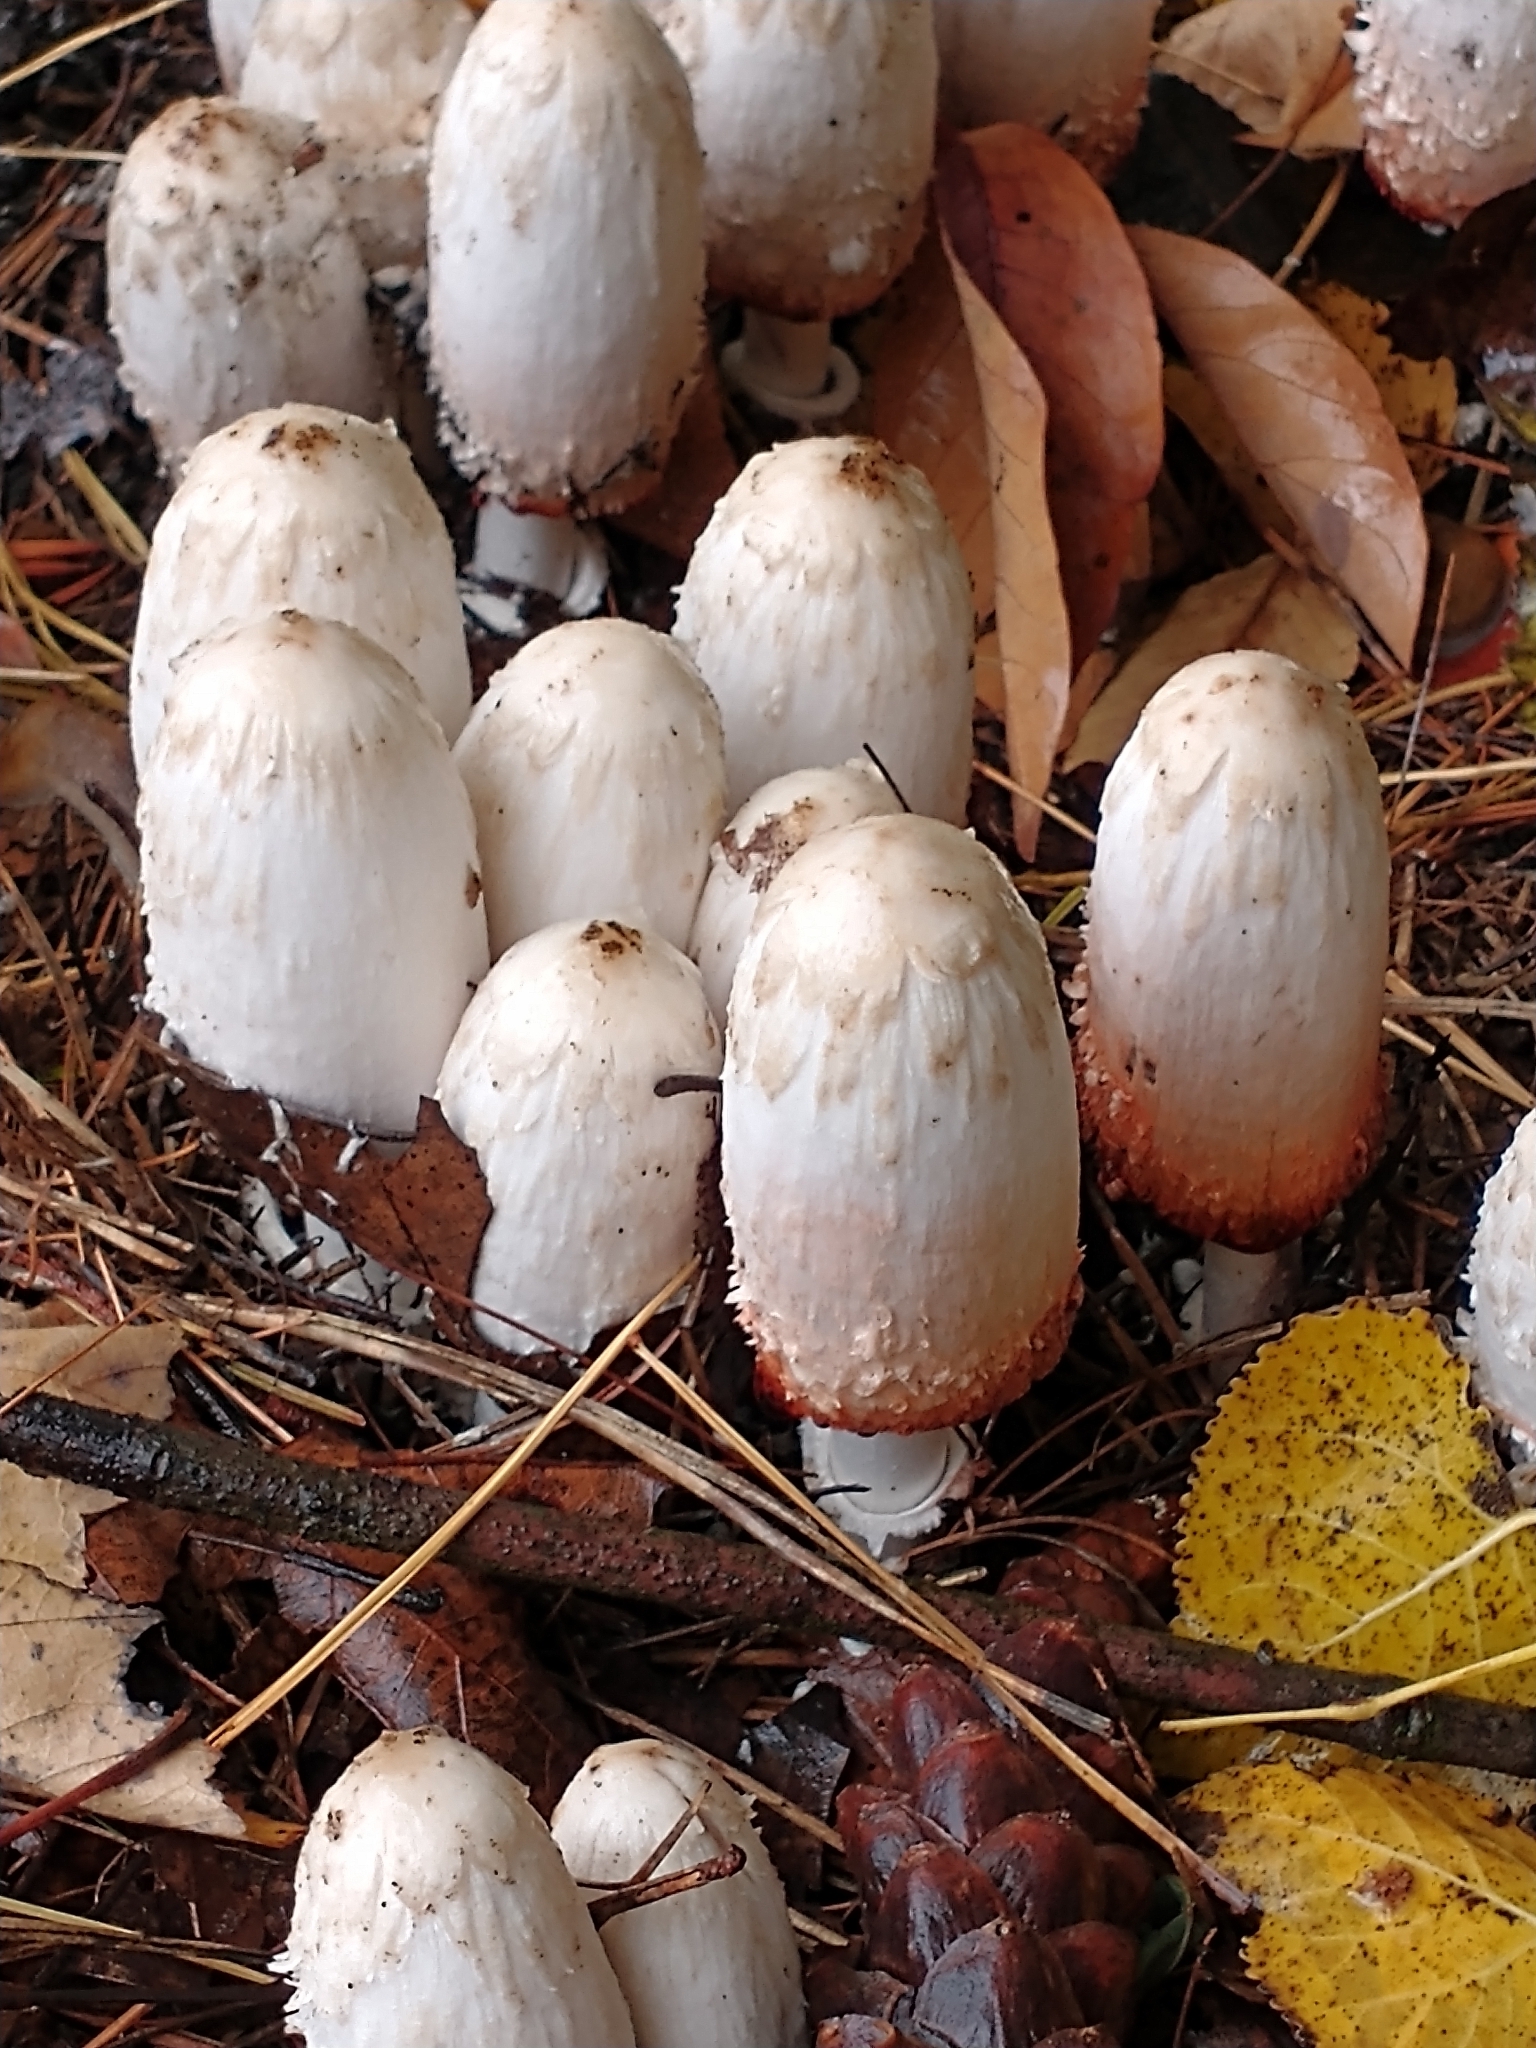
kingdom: Fungi
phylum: Basidiomycota
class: Agaricomycetes
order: Agaricales
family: Agaricaceae
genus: Coprinus
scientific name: Coprinus comatus
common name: Lawyer's wig
